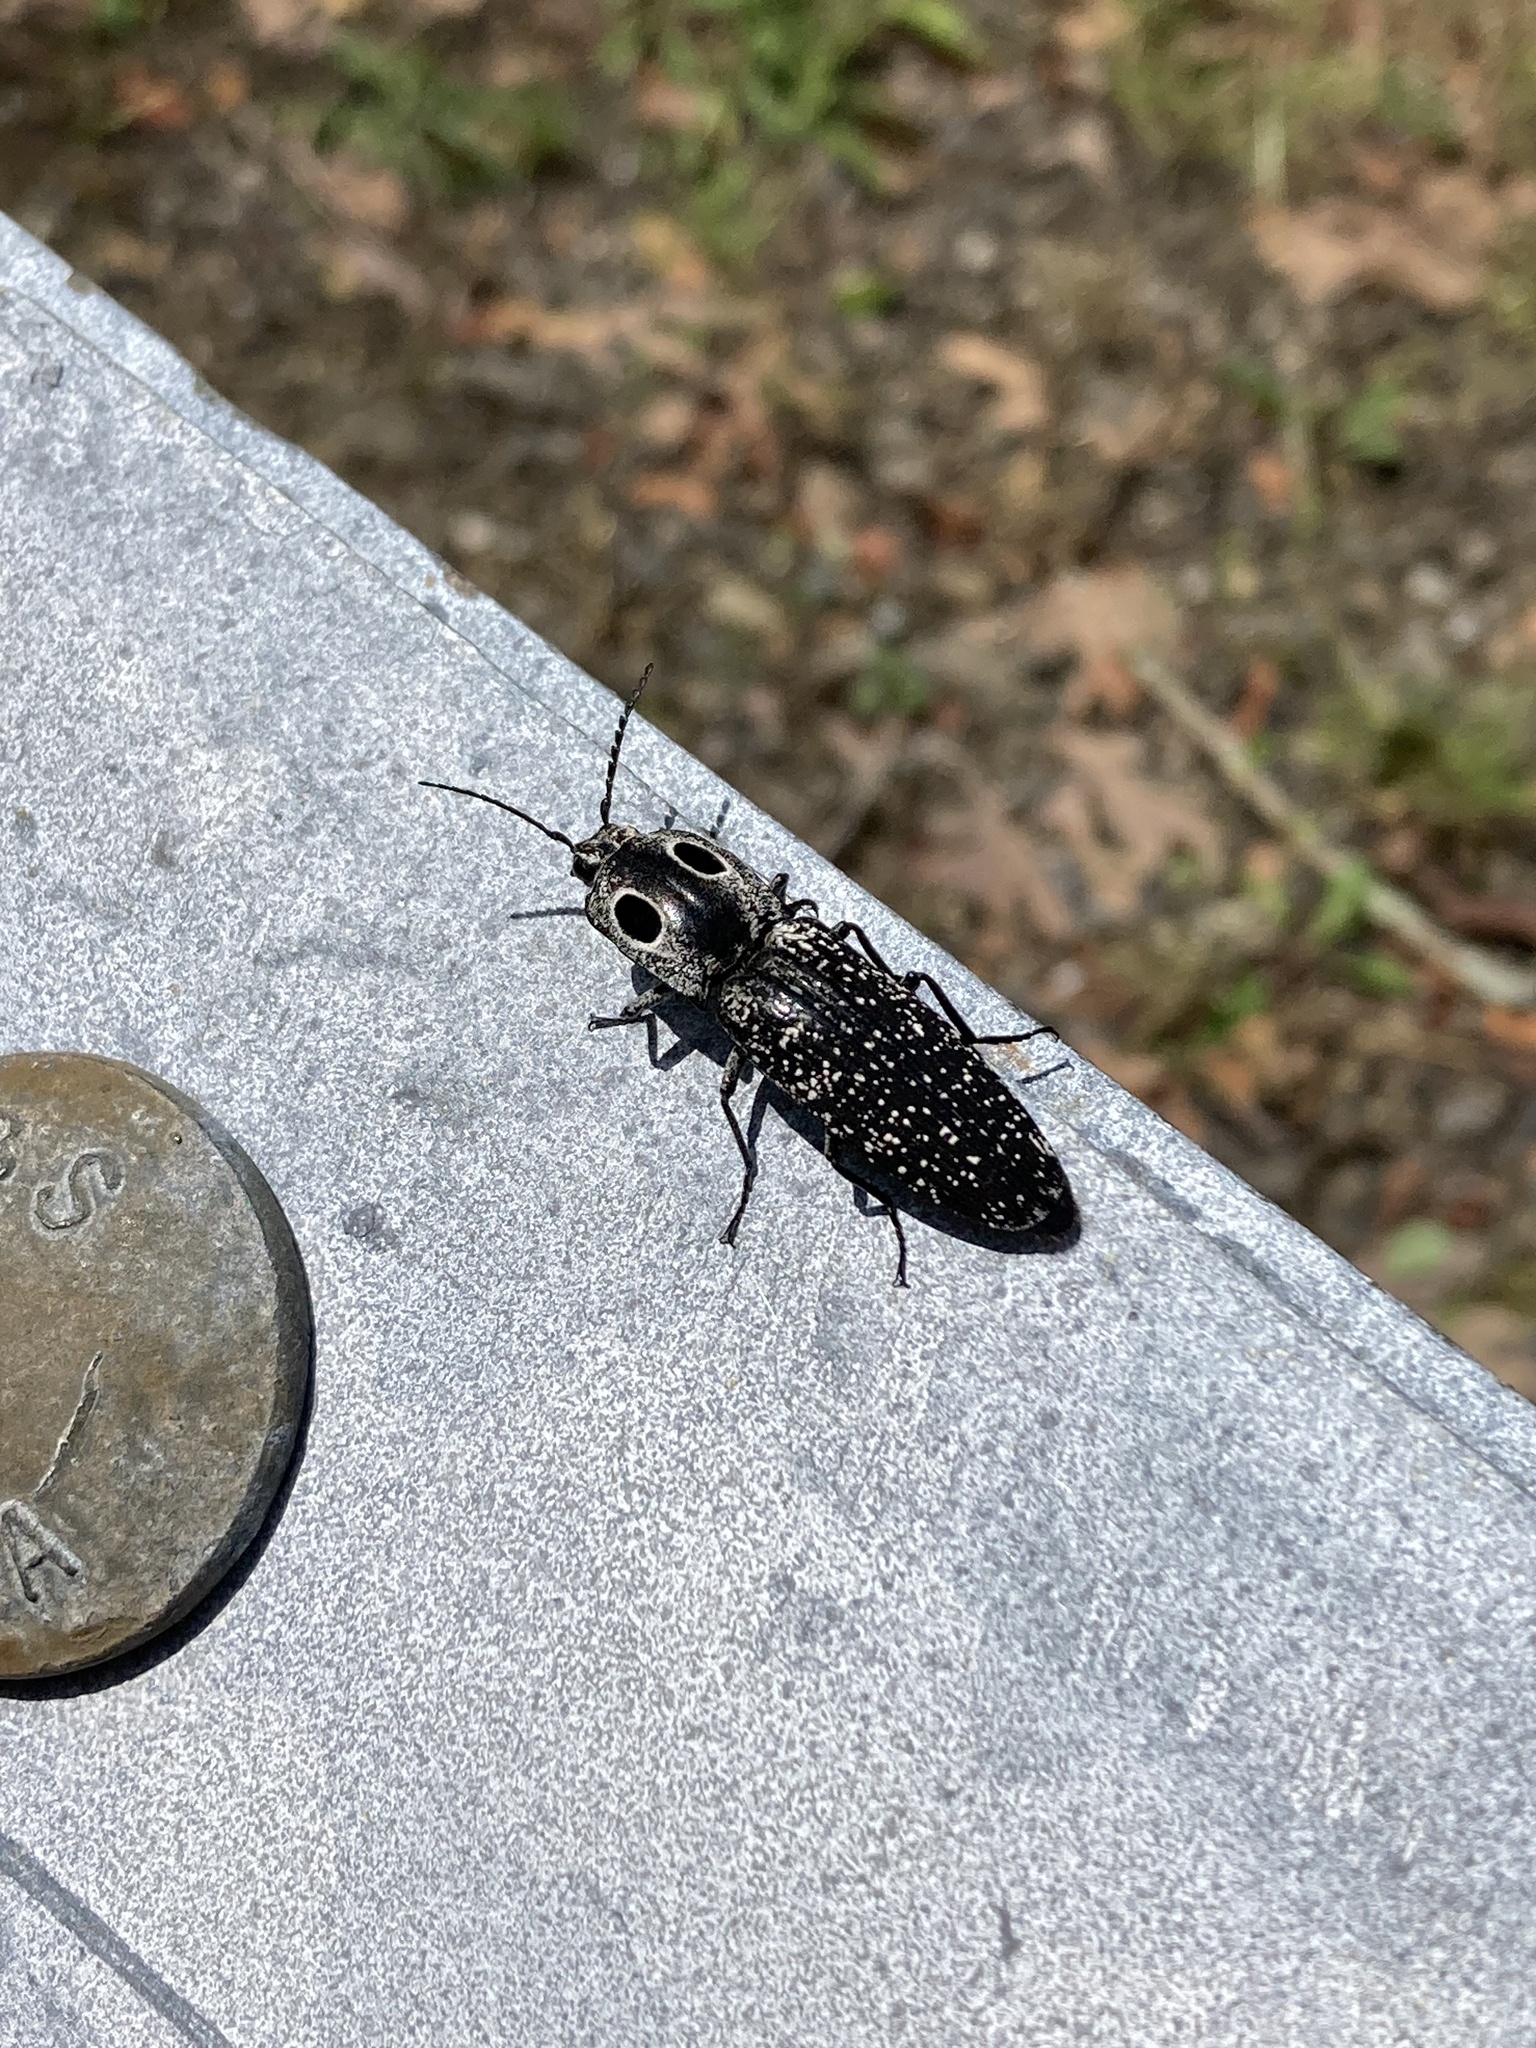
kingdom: Animalia
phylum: Arthropoda
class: Insecta
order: Coleoptera
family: Elateridae
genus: Alaus
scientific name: Alaus oculatus
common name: Eastern eyed click beetle
